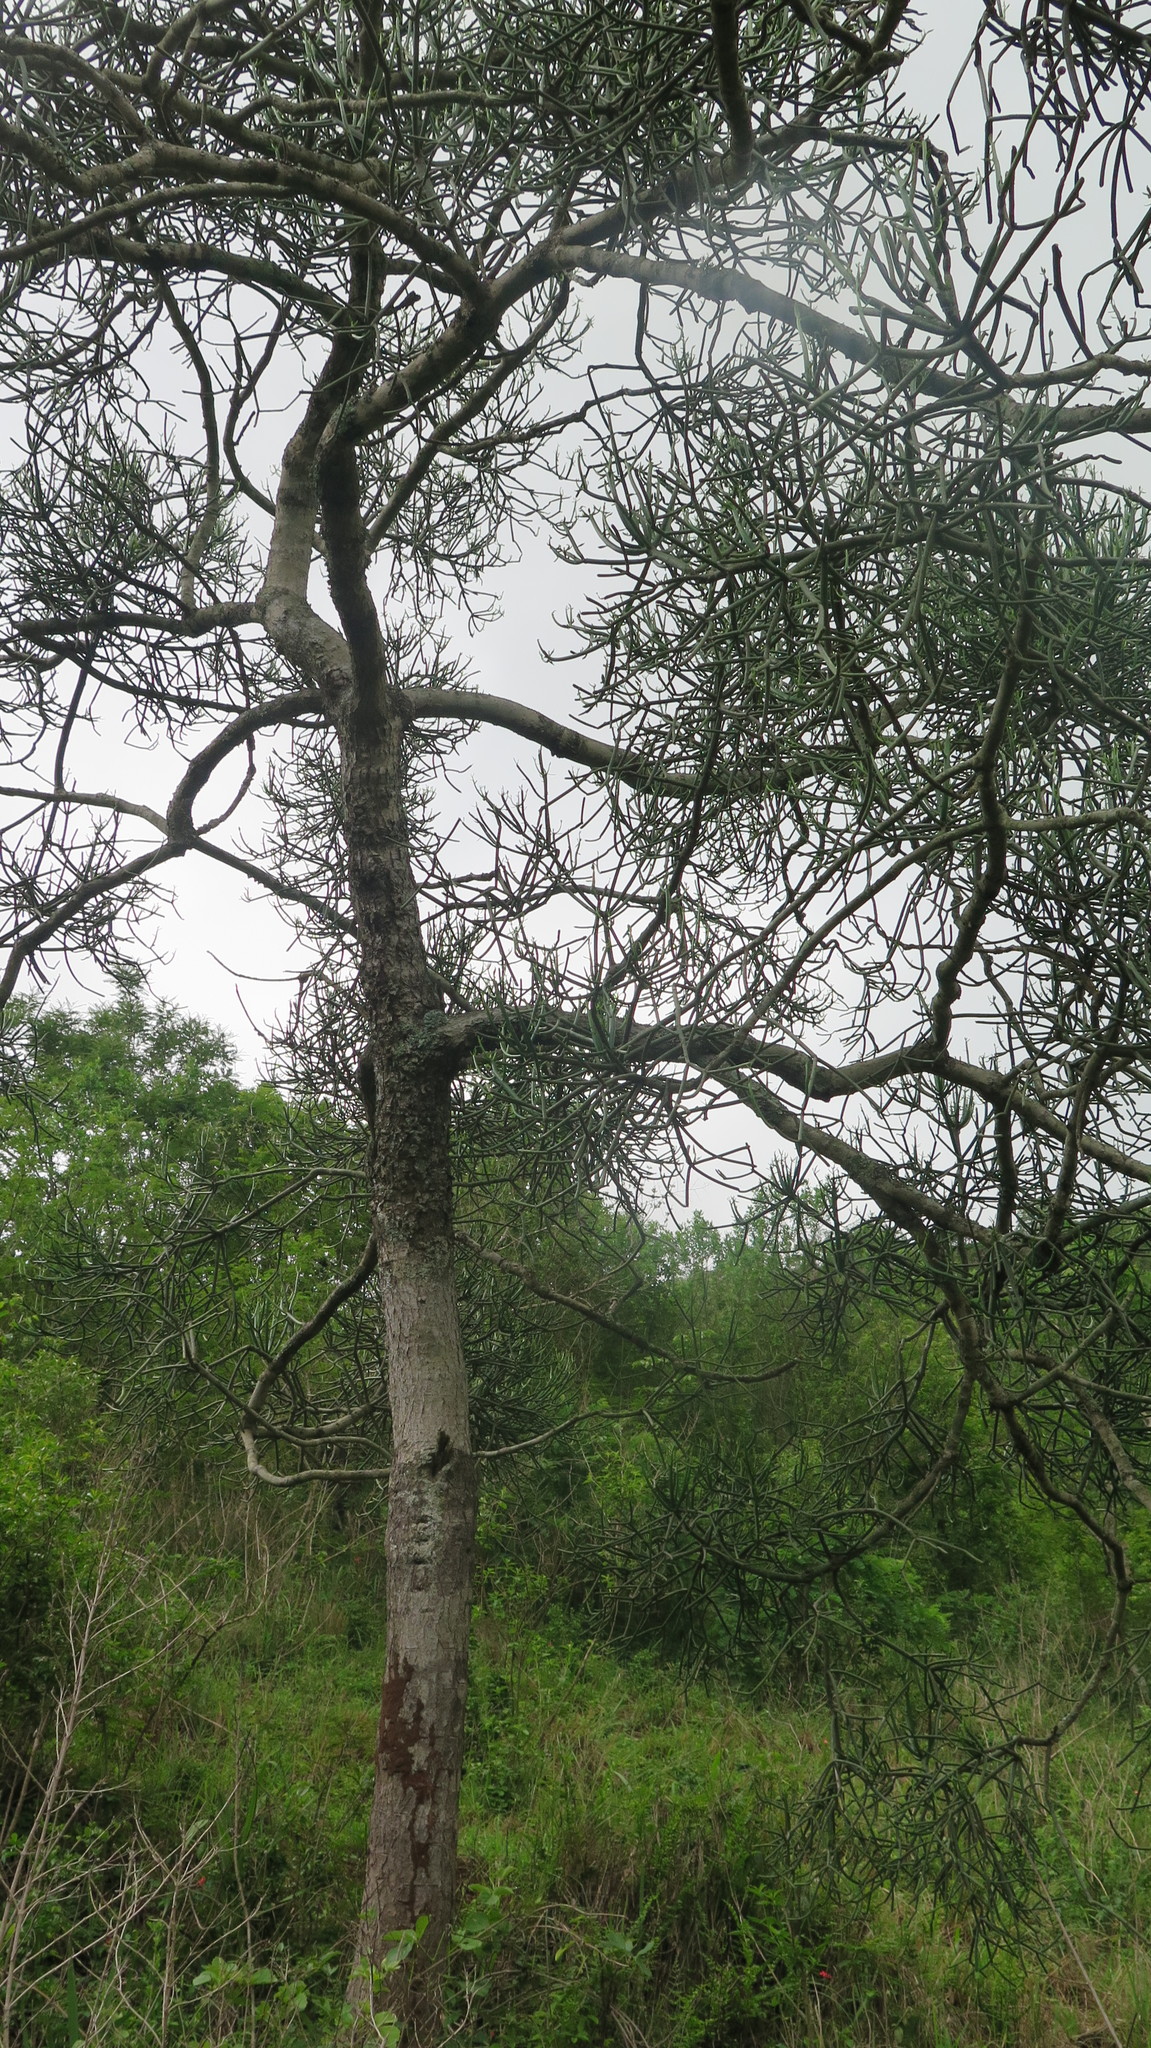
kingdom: Plantae
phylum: Tracheophyta
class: Magnoliopsida
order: Malpighiales
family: Euphorbiaceae
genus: Euphorbia
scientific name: Euphorbia tirucalli
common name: Indiantree spurge
